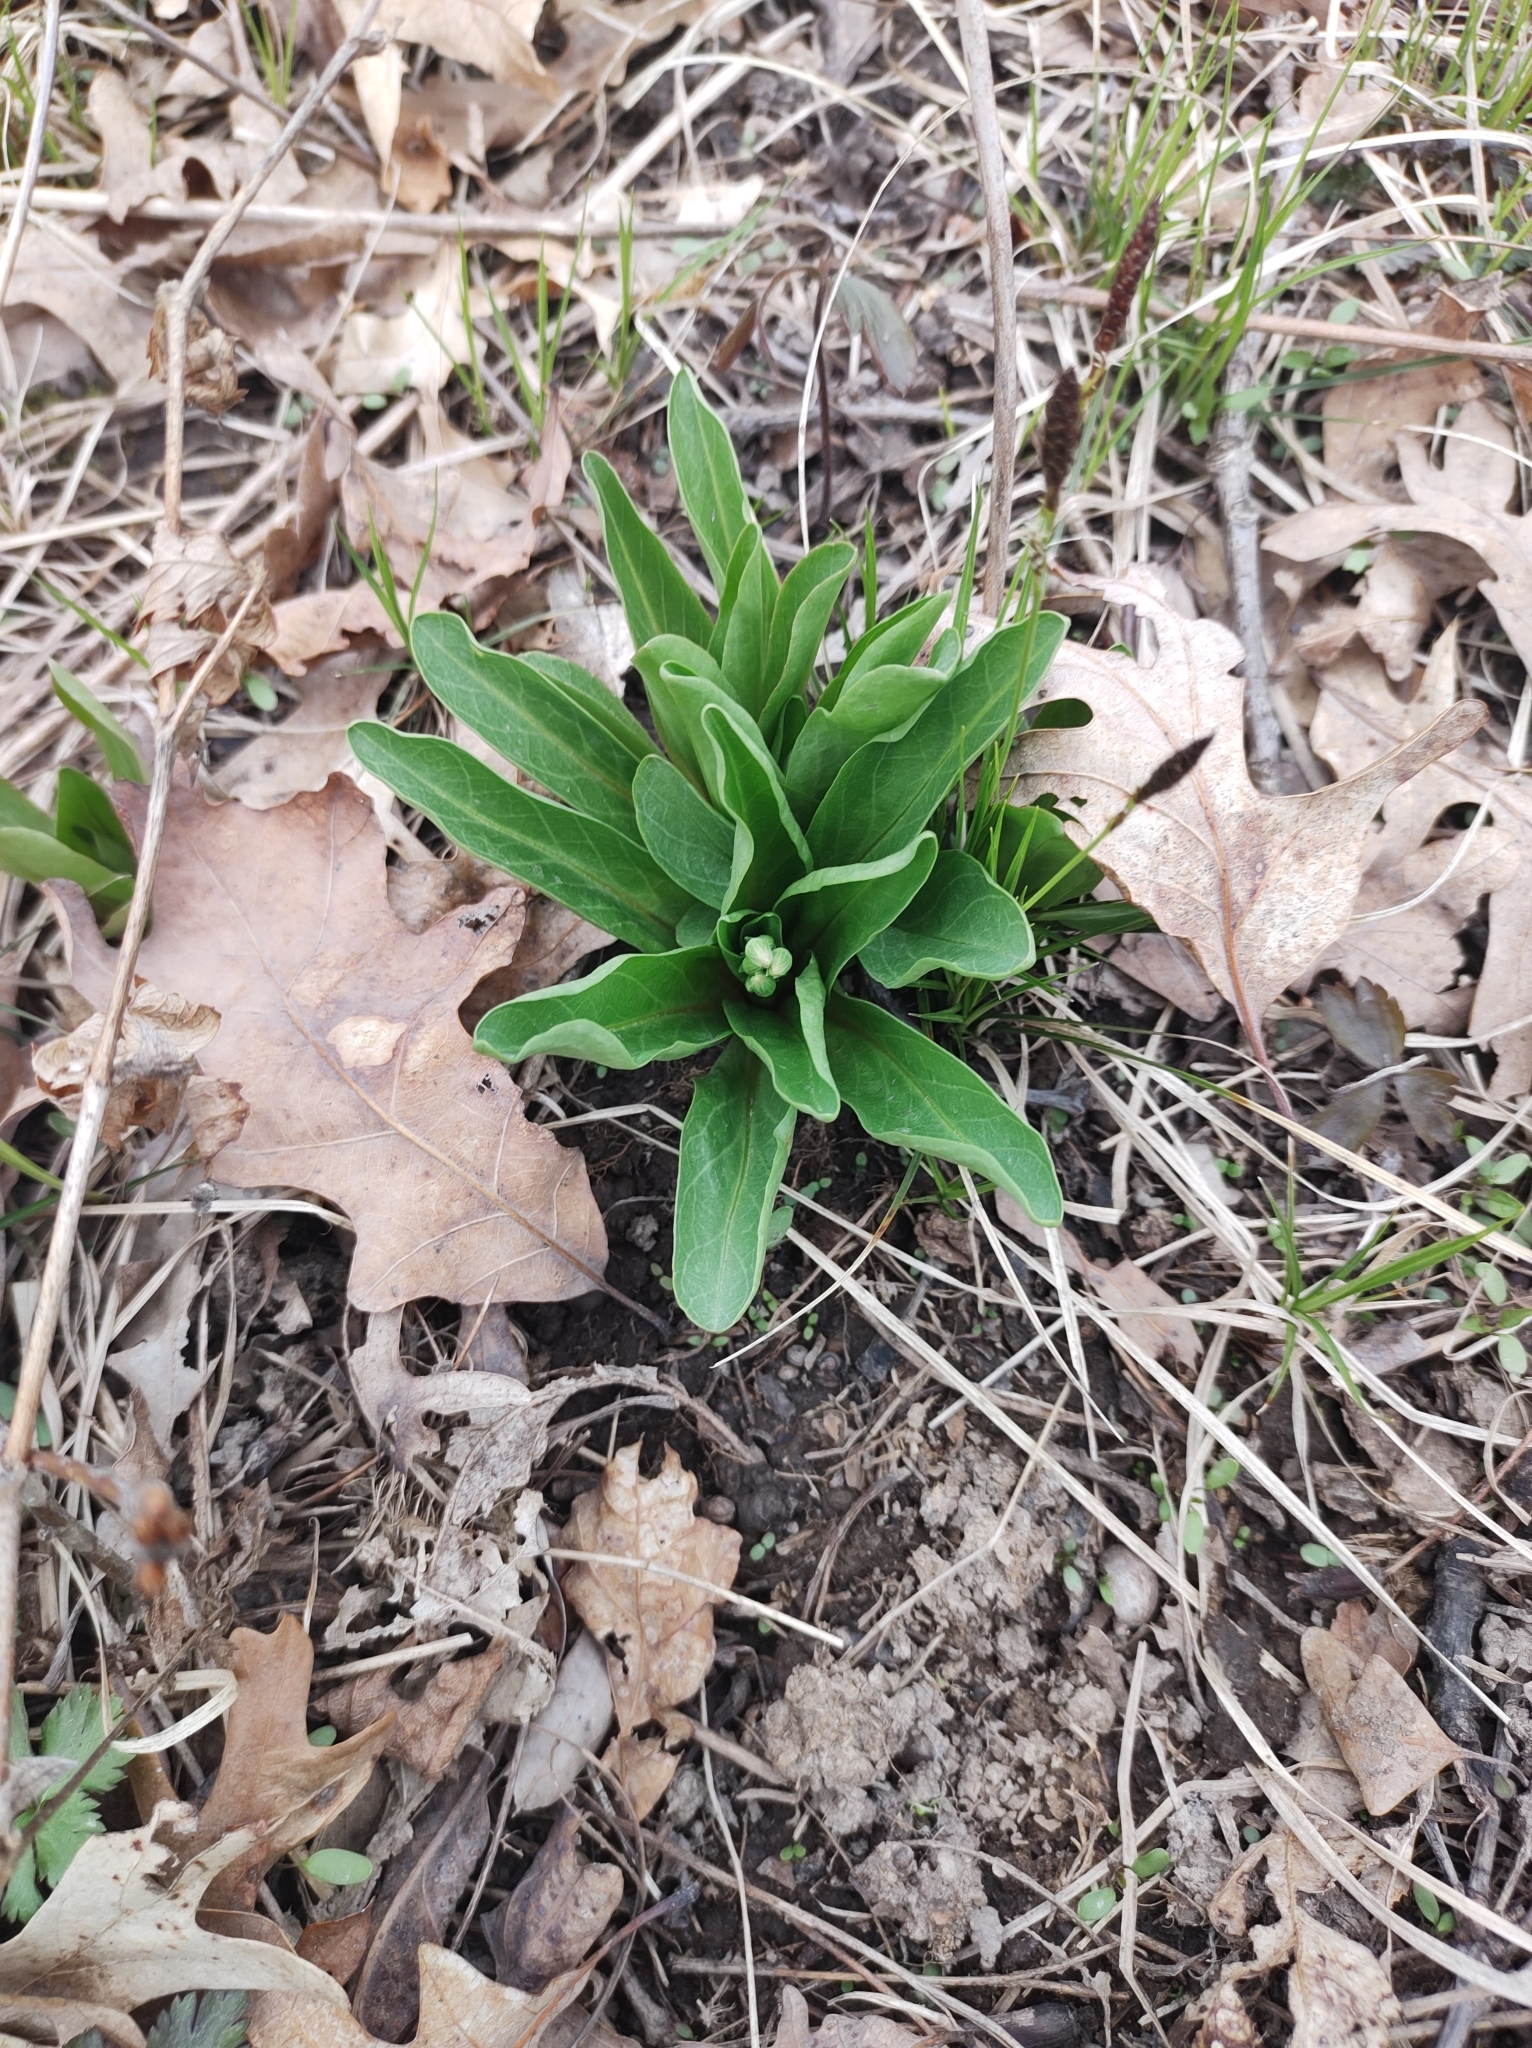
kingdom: Plantae
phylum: Tracheophyta
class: Magnoliopsida
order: Ericales
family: Primulaceae
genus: Dodecatheon
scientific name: Dodecatheon meadia
